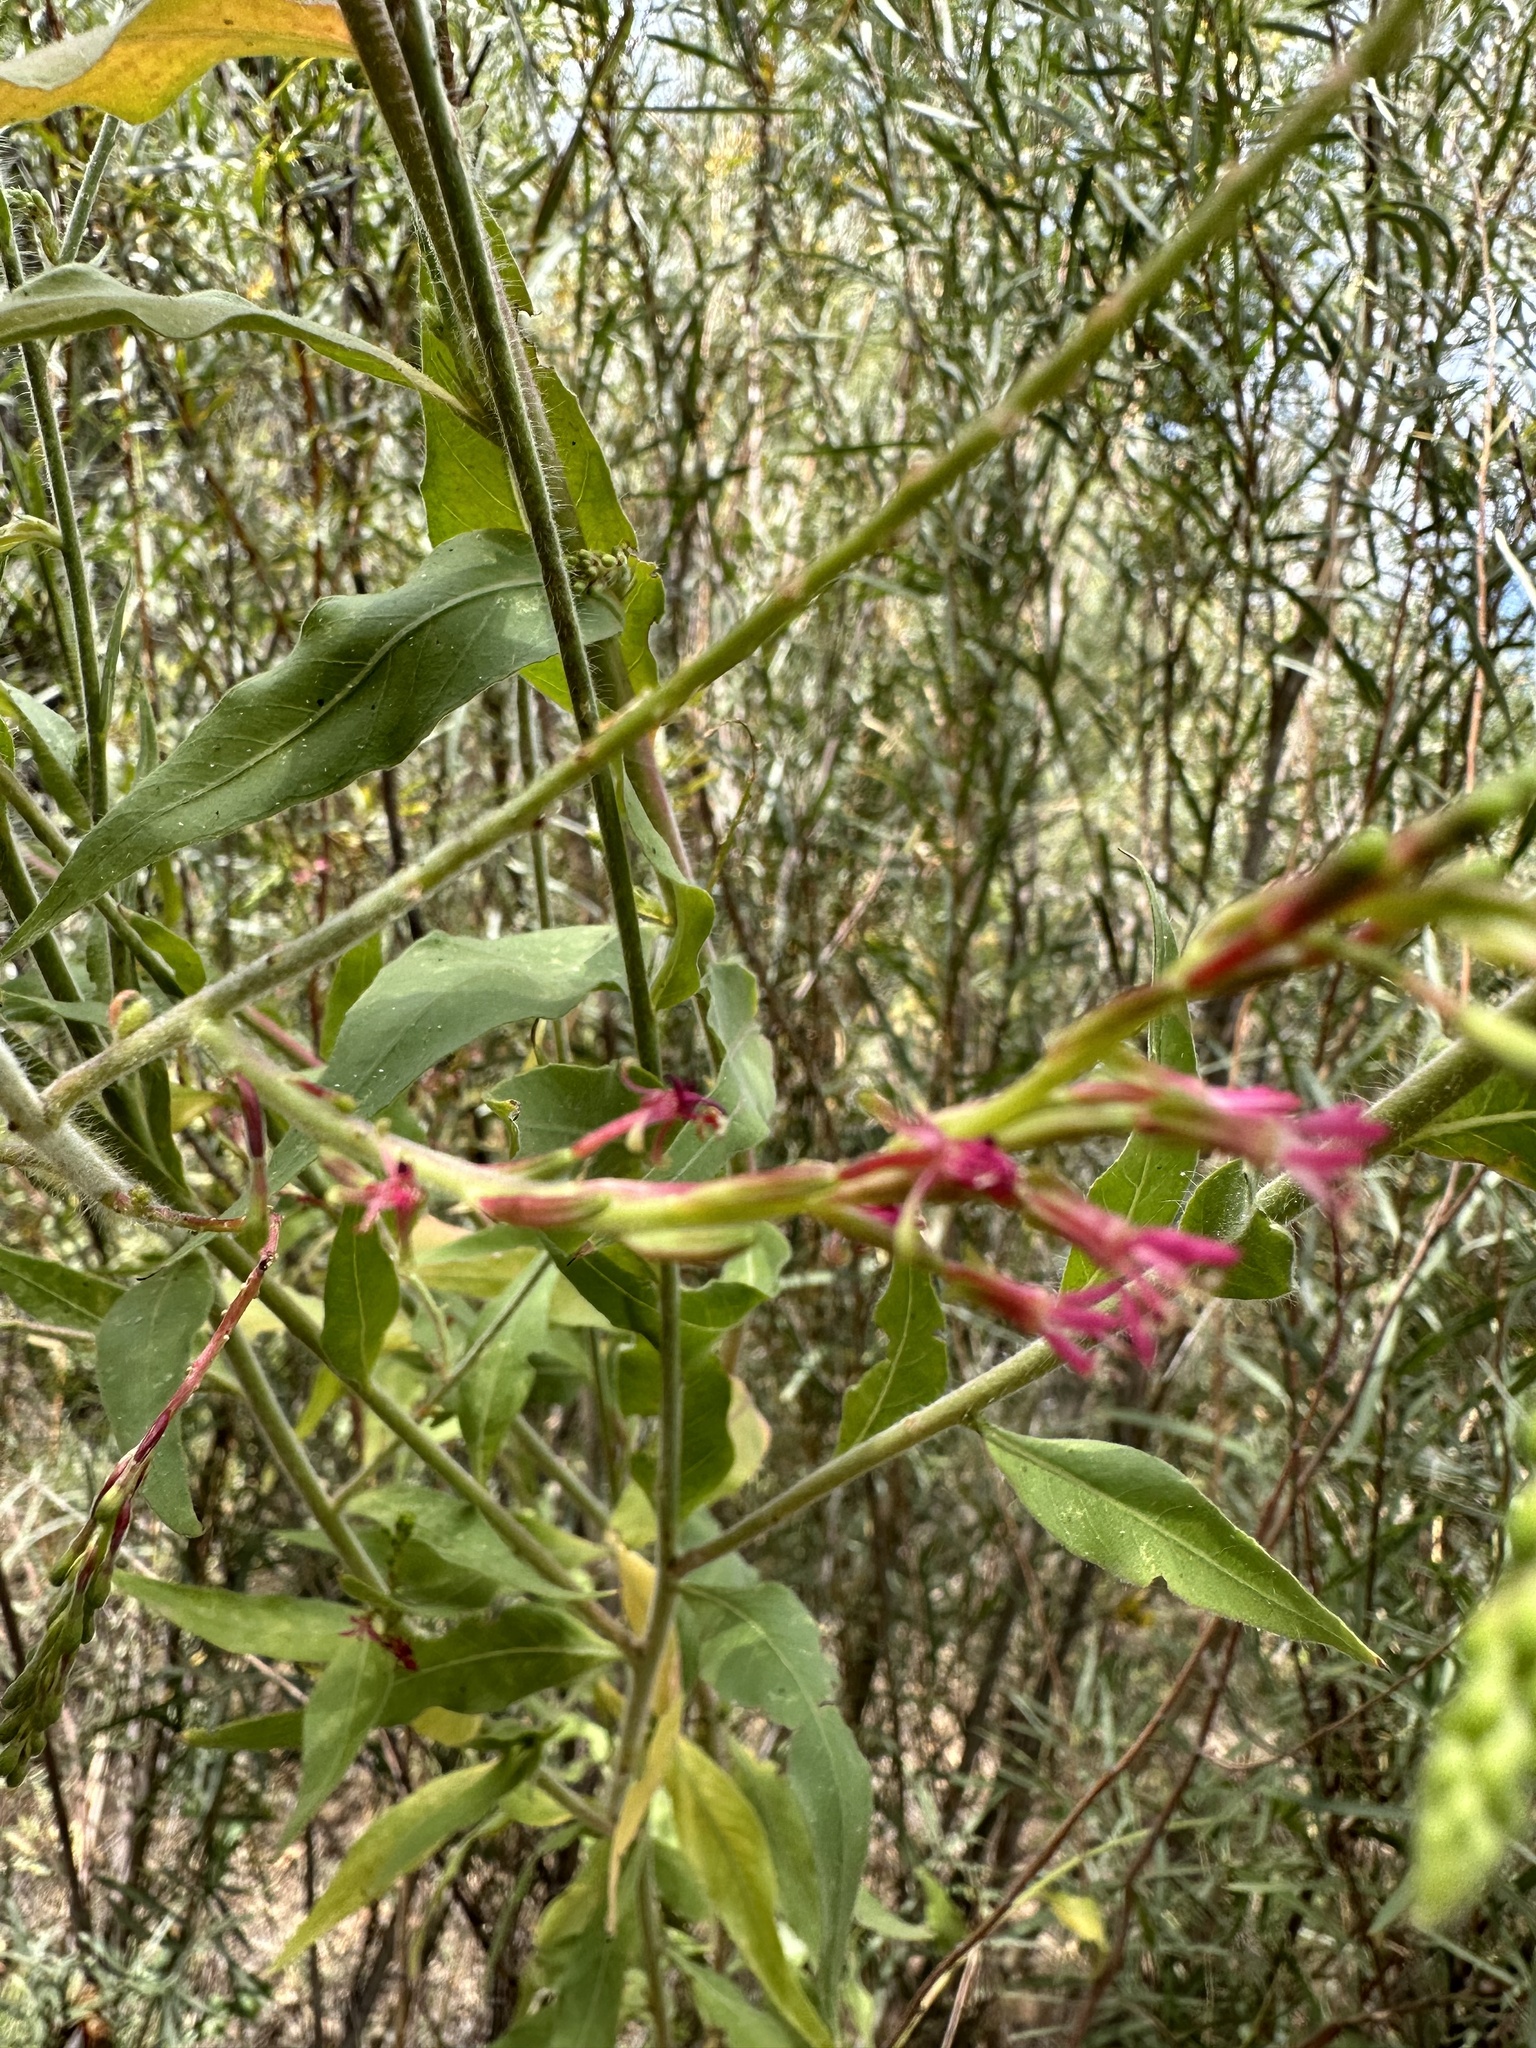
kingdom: Plantae
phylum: Tracheophyta
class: Magnoliopsida
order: Myrtales
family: Onagraceae
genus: Oenothera
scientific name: Oenothera curtiflora
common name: Velvetweed
